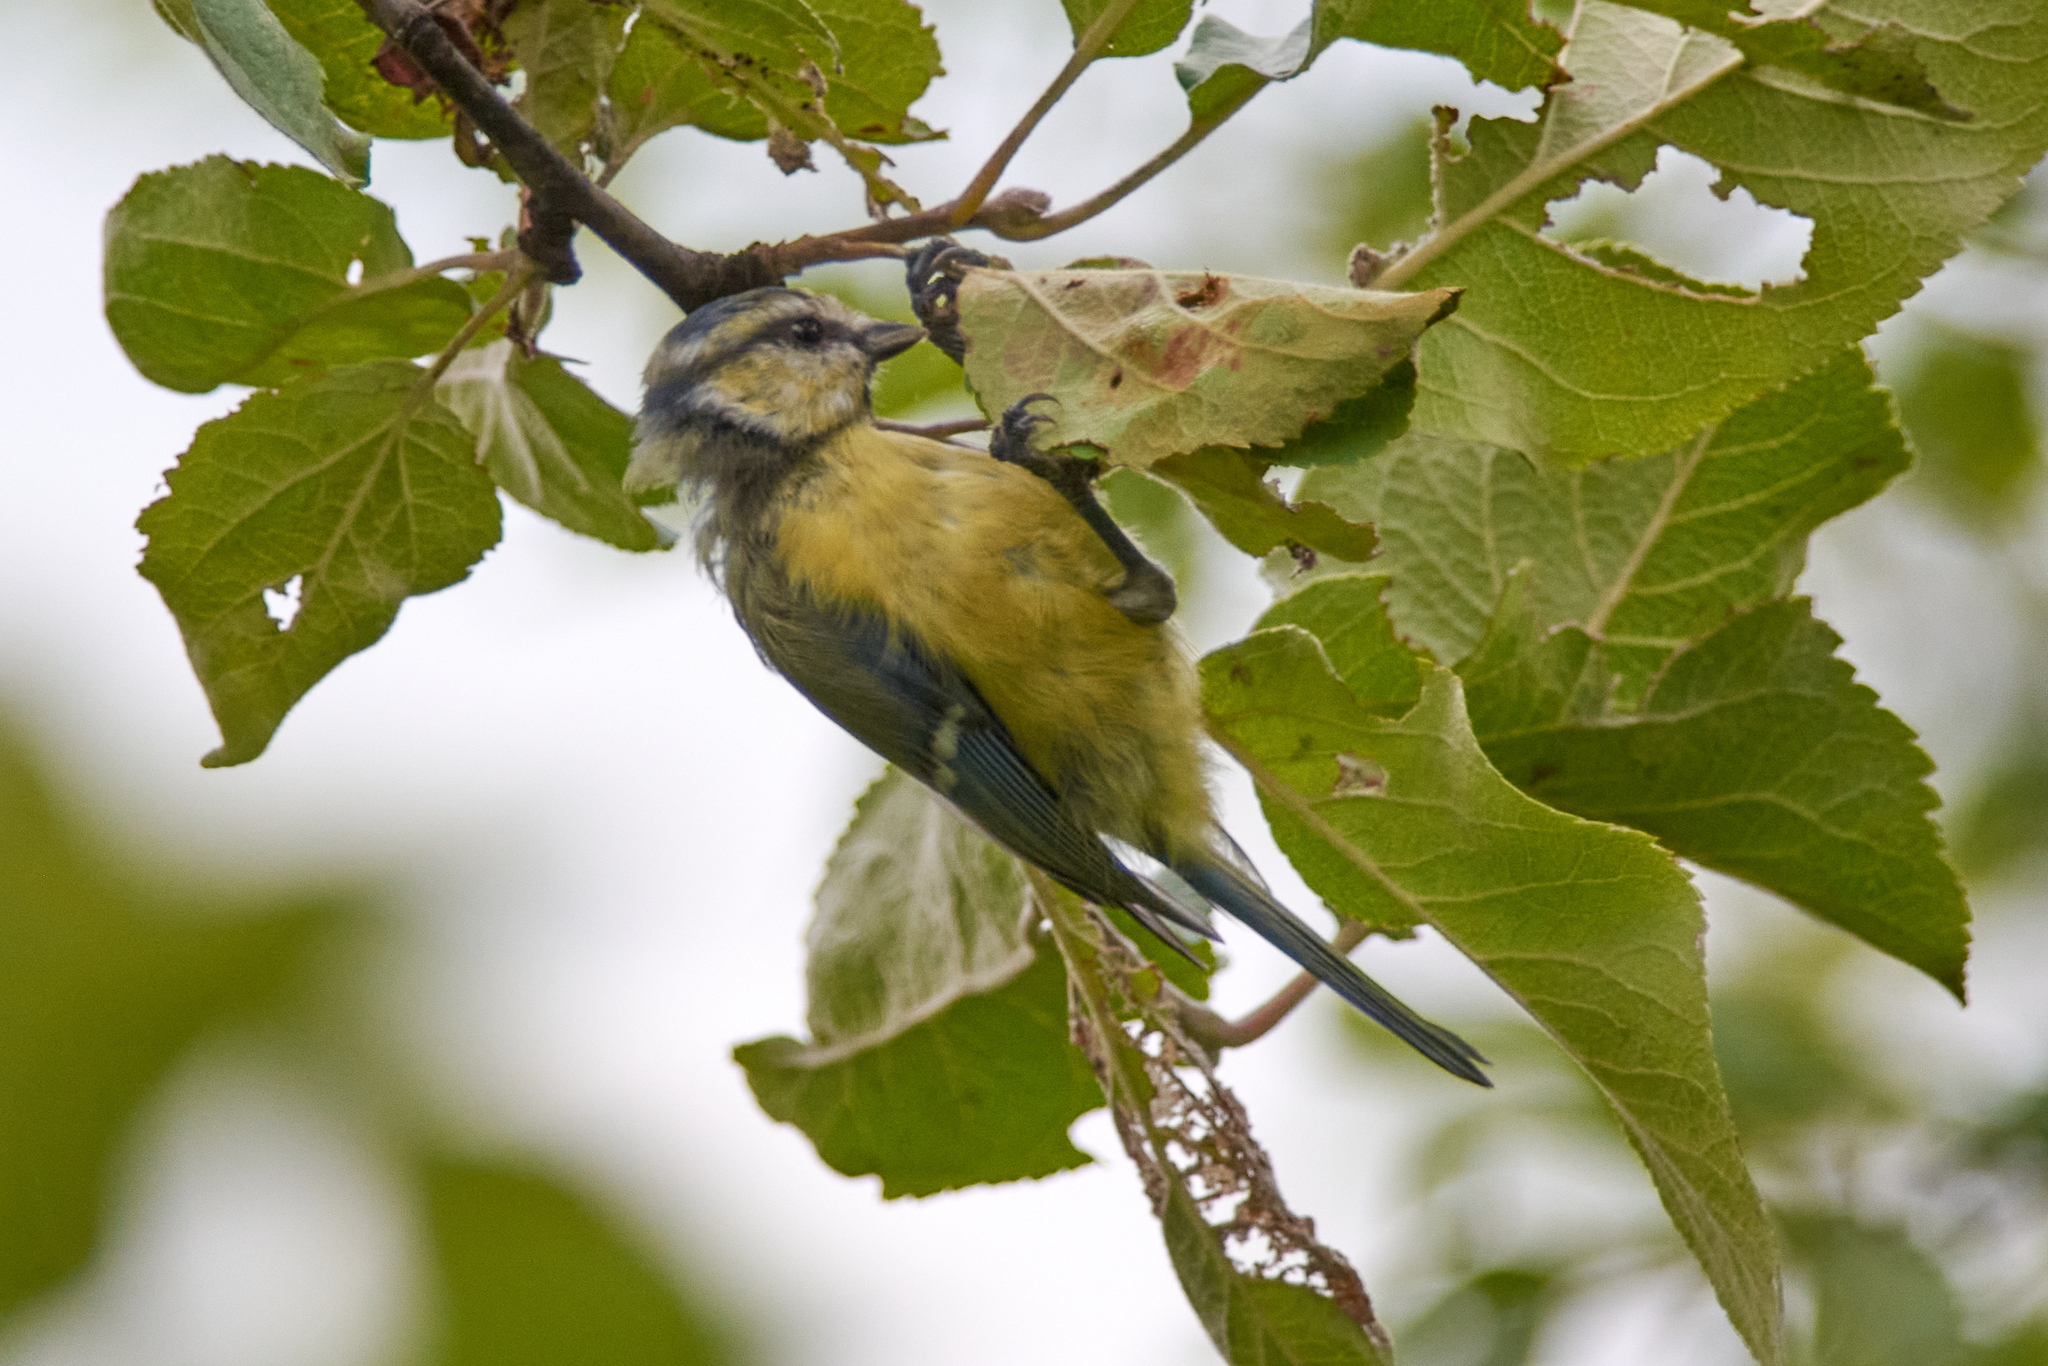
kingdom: Animalia
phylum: Chordata
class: Aves
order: Passeriformes
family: Paridae
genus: Cyanistes
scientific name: Cyanistes caeruleus
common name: Eurasian blue tit
